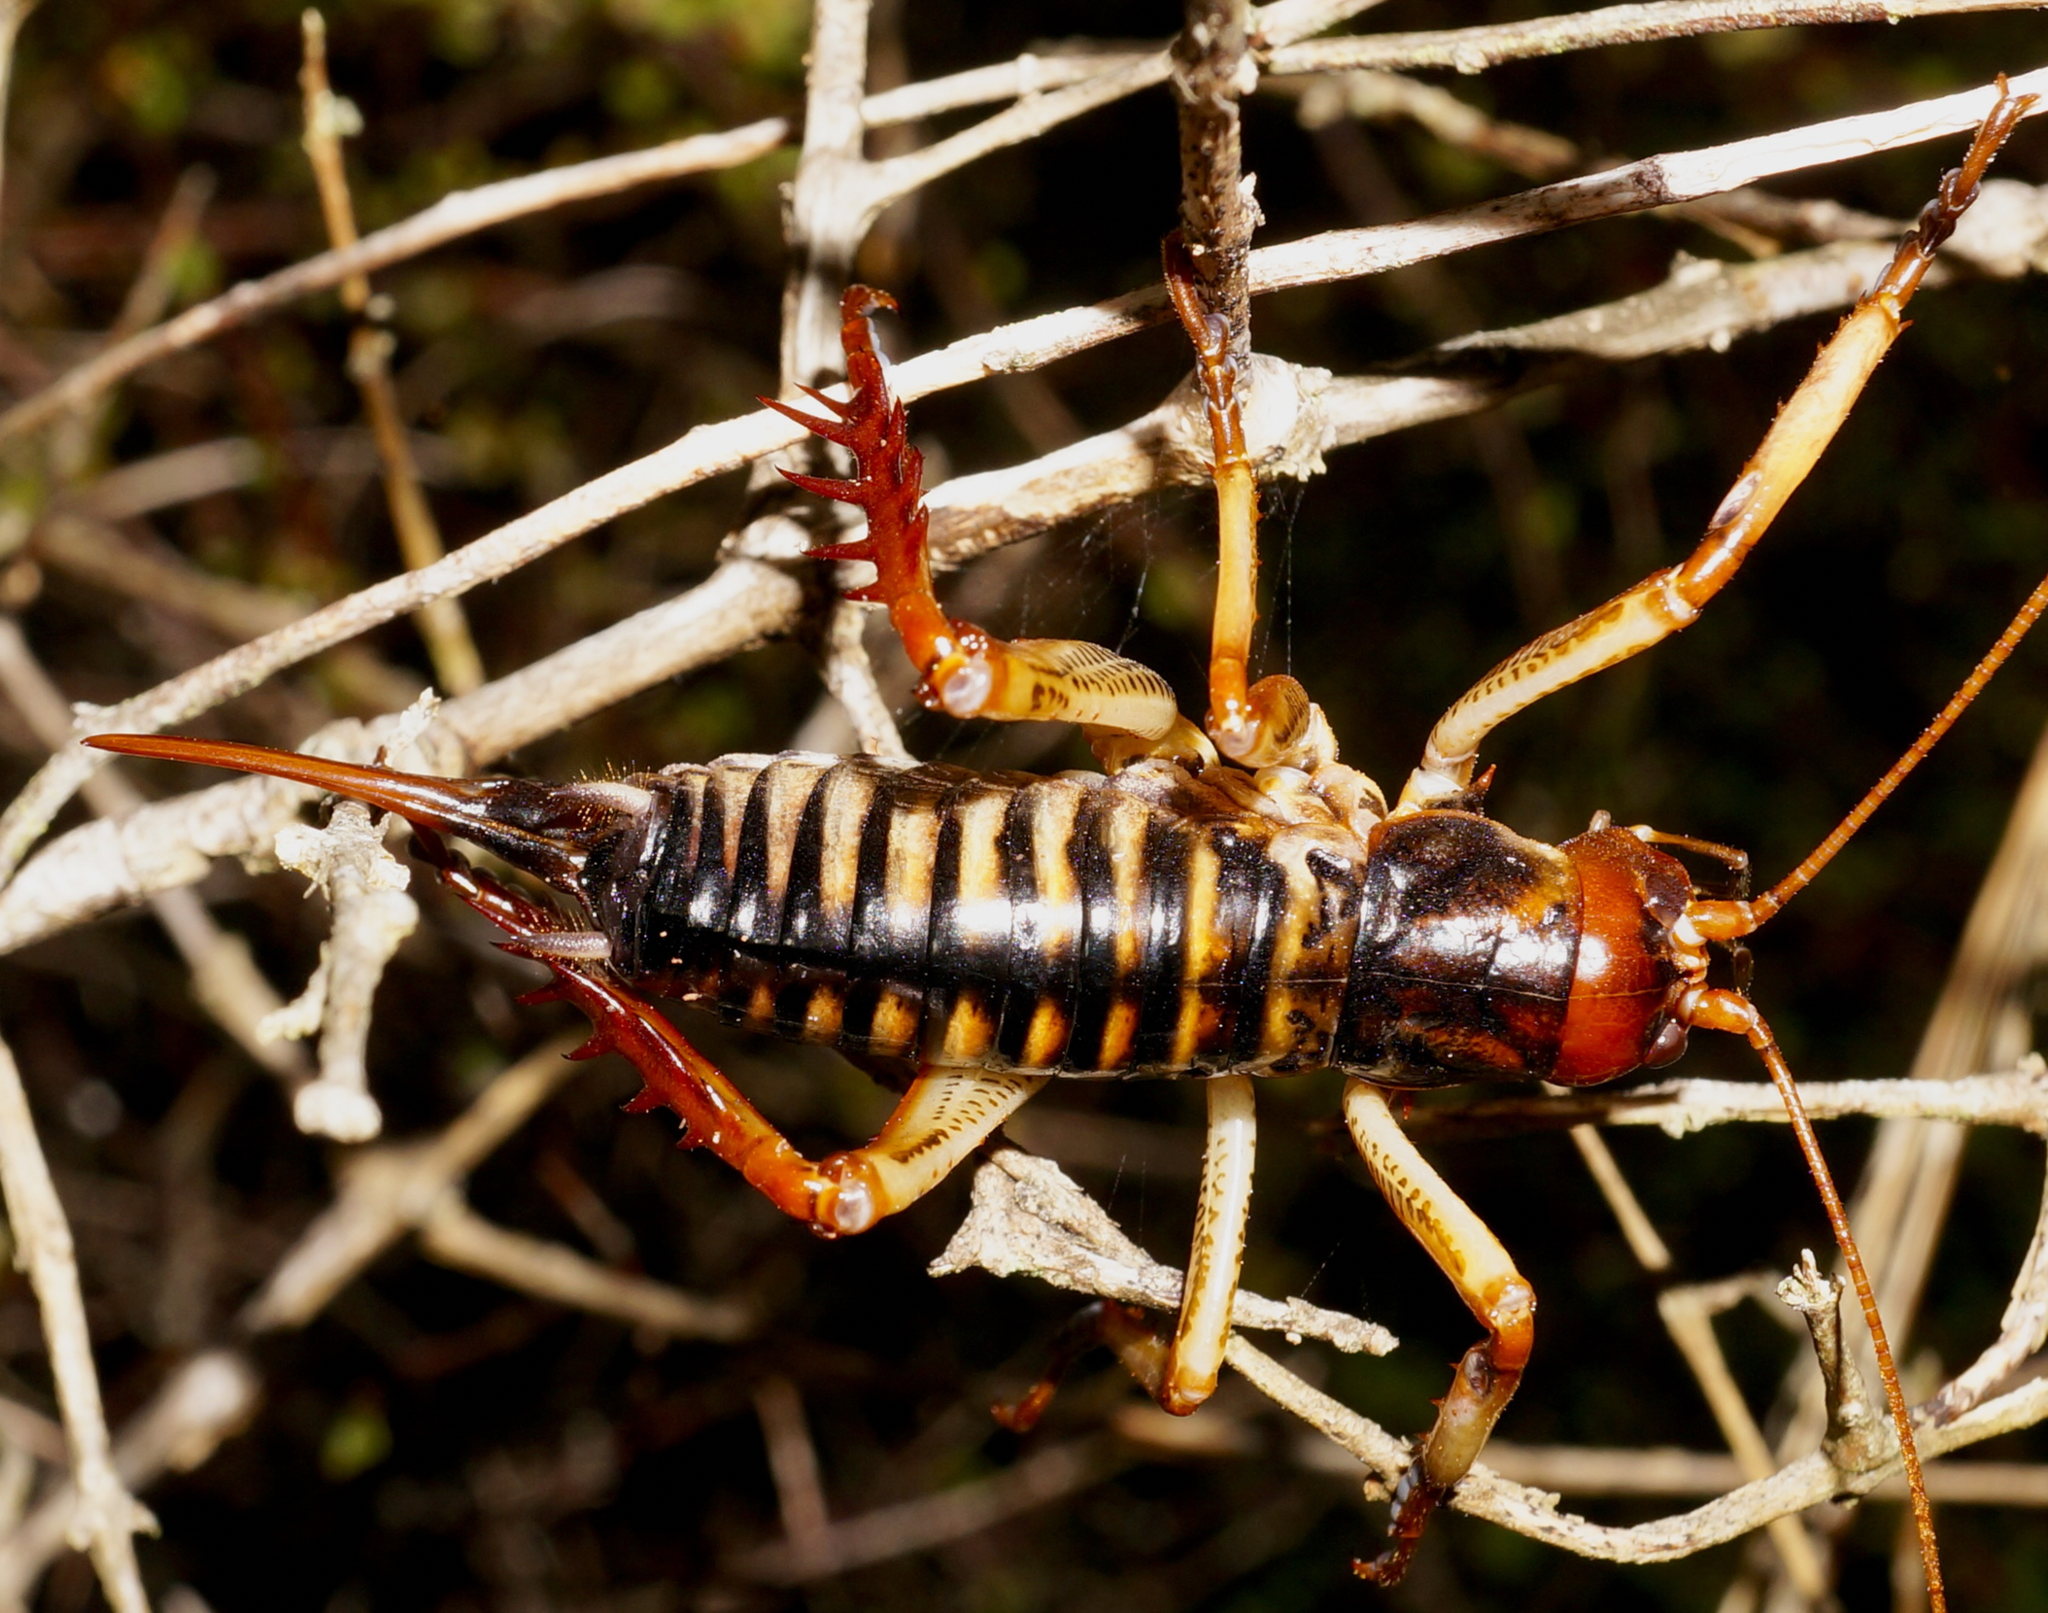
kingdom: Animalia
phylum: Arthropoda
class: Insecta
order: Orthoptera
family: Anostostomatidae
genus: Hemideina
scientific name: Hemideina crassidens
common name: Wellington tree weta
